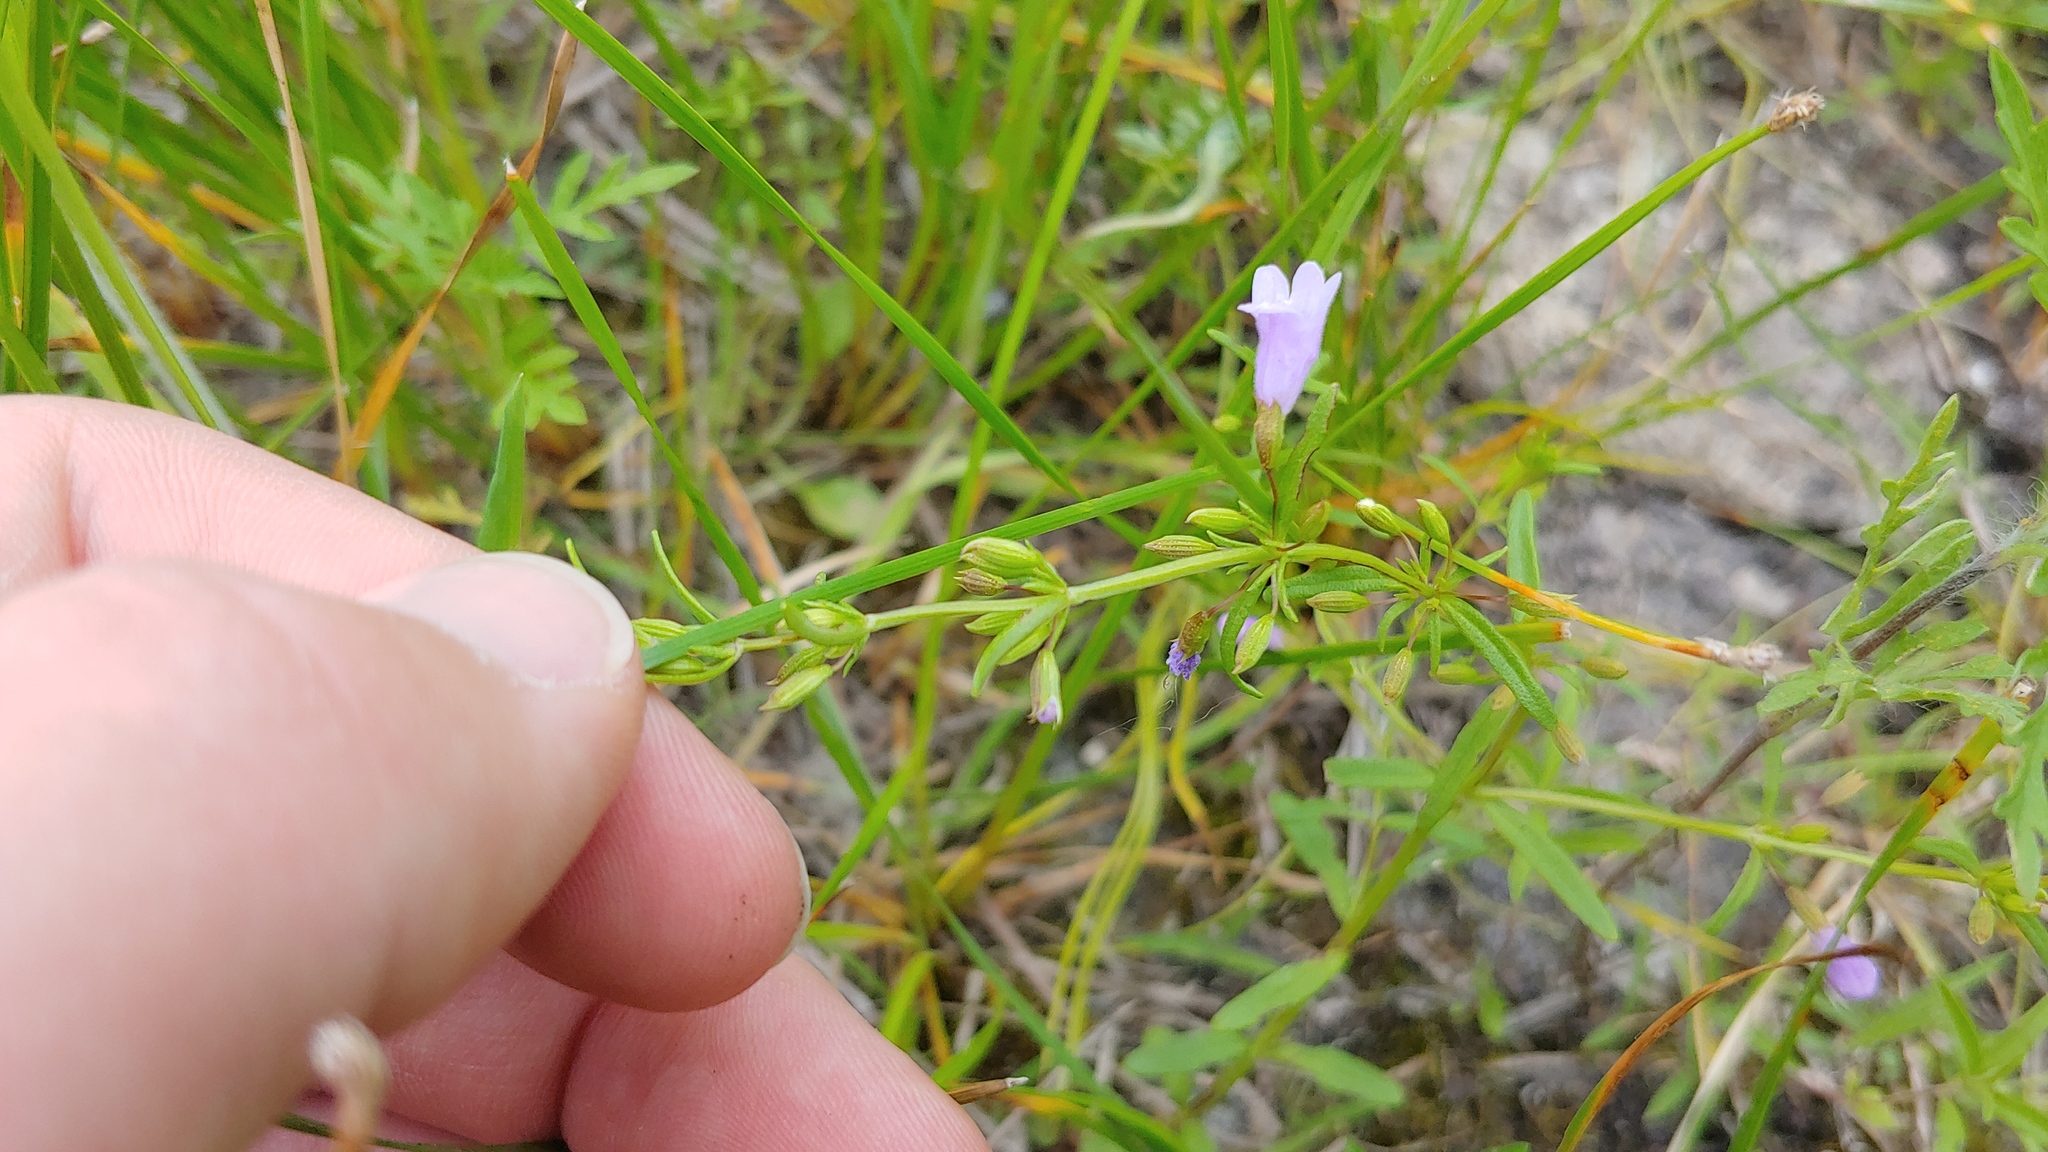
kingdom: Plantae
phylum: Tracheophyta
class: Magnoliopsida
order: Lamiales
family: Lamiaceae
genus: Clinopodium
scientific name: Clinopodium arkansanum
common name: Limestone calamint
